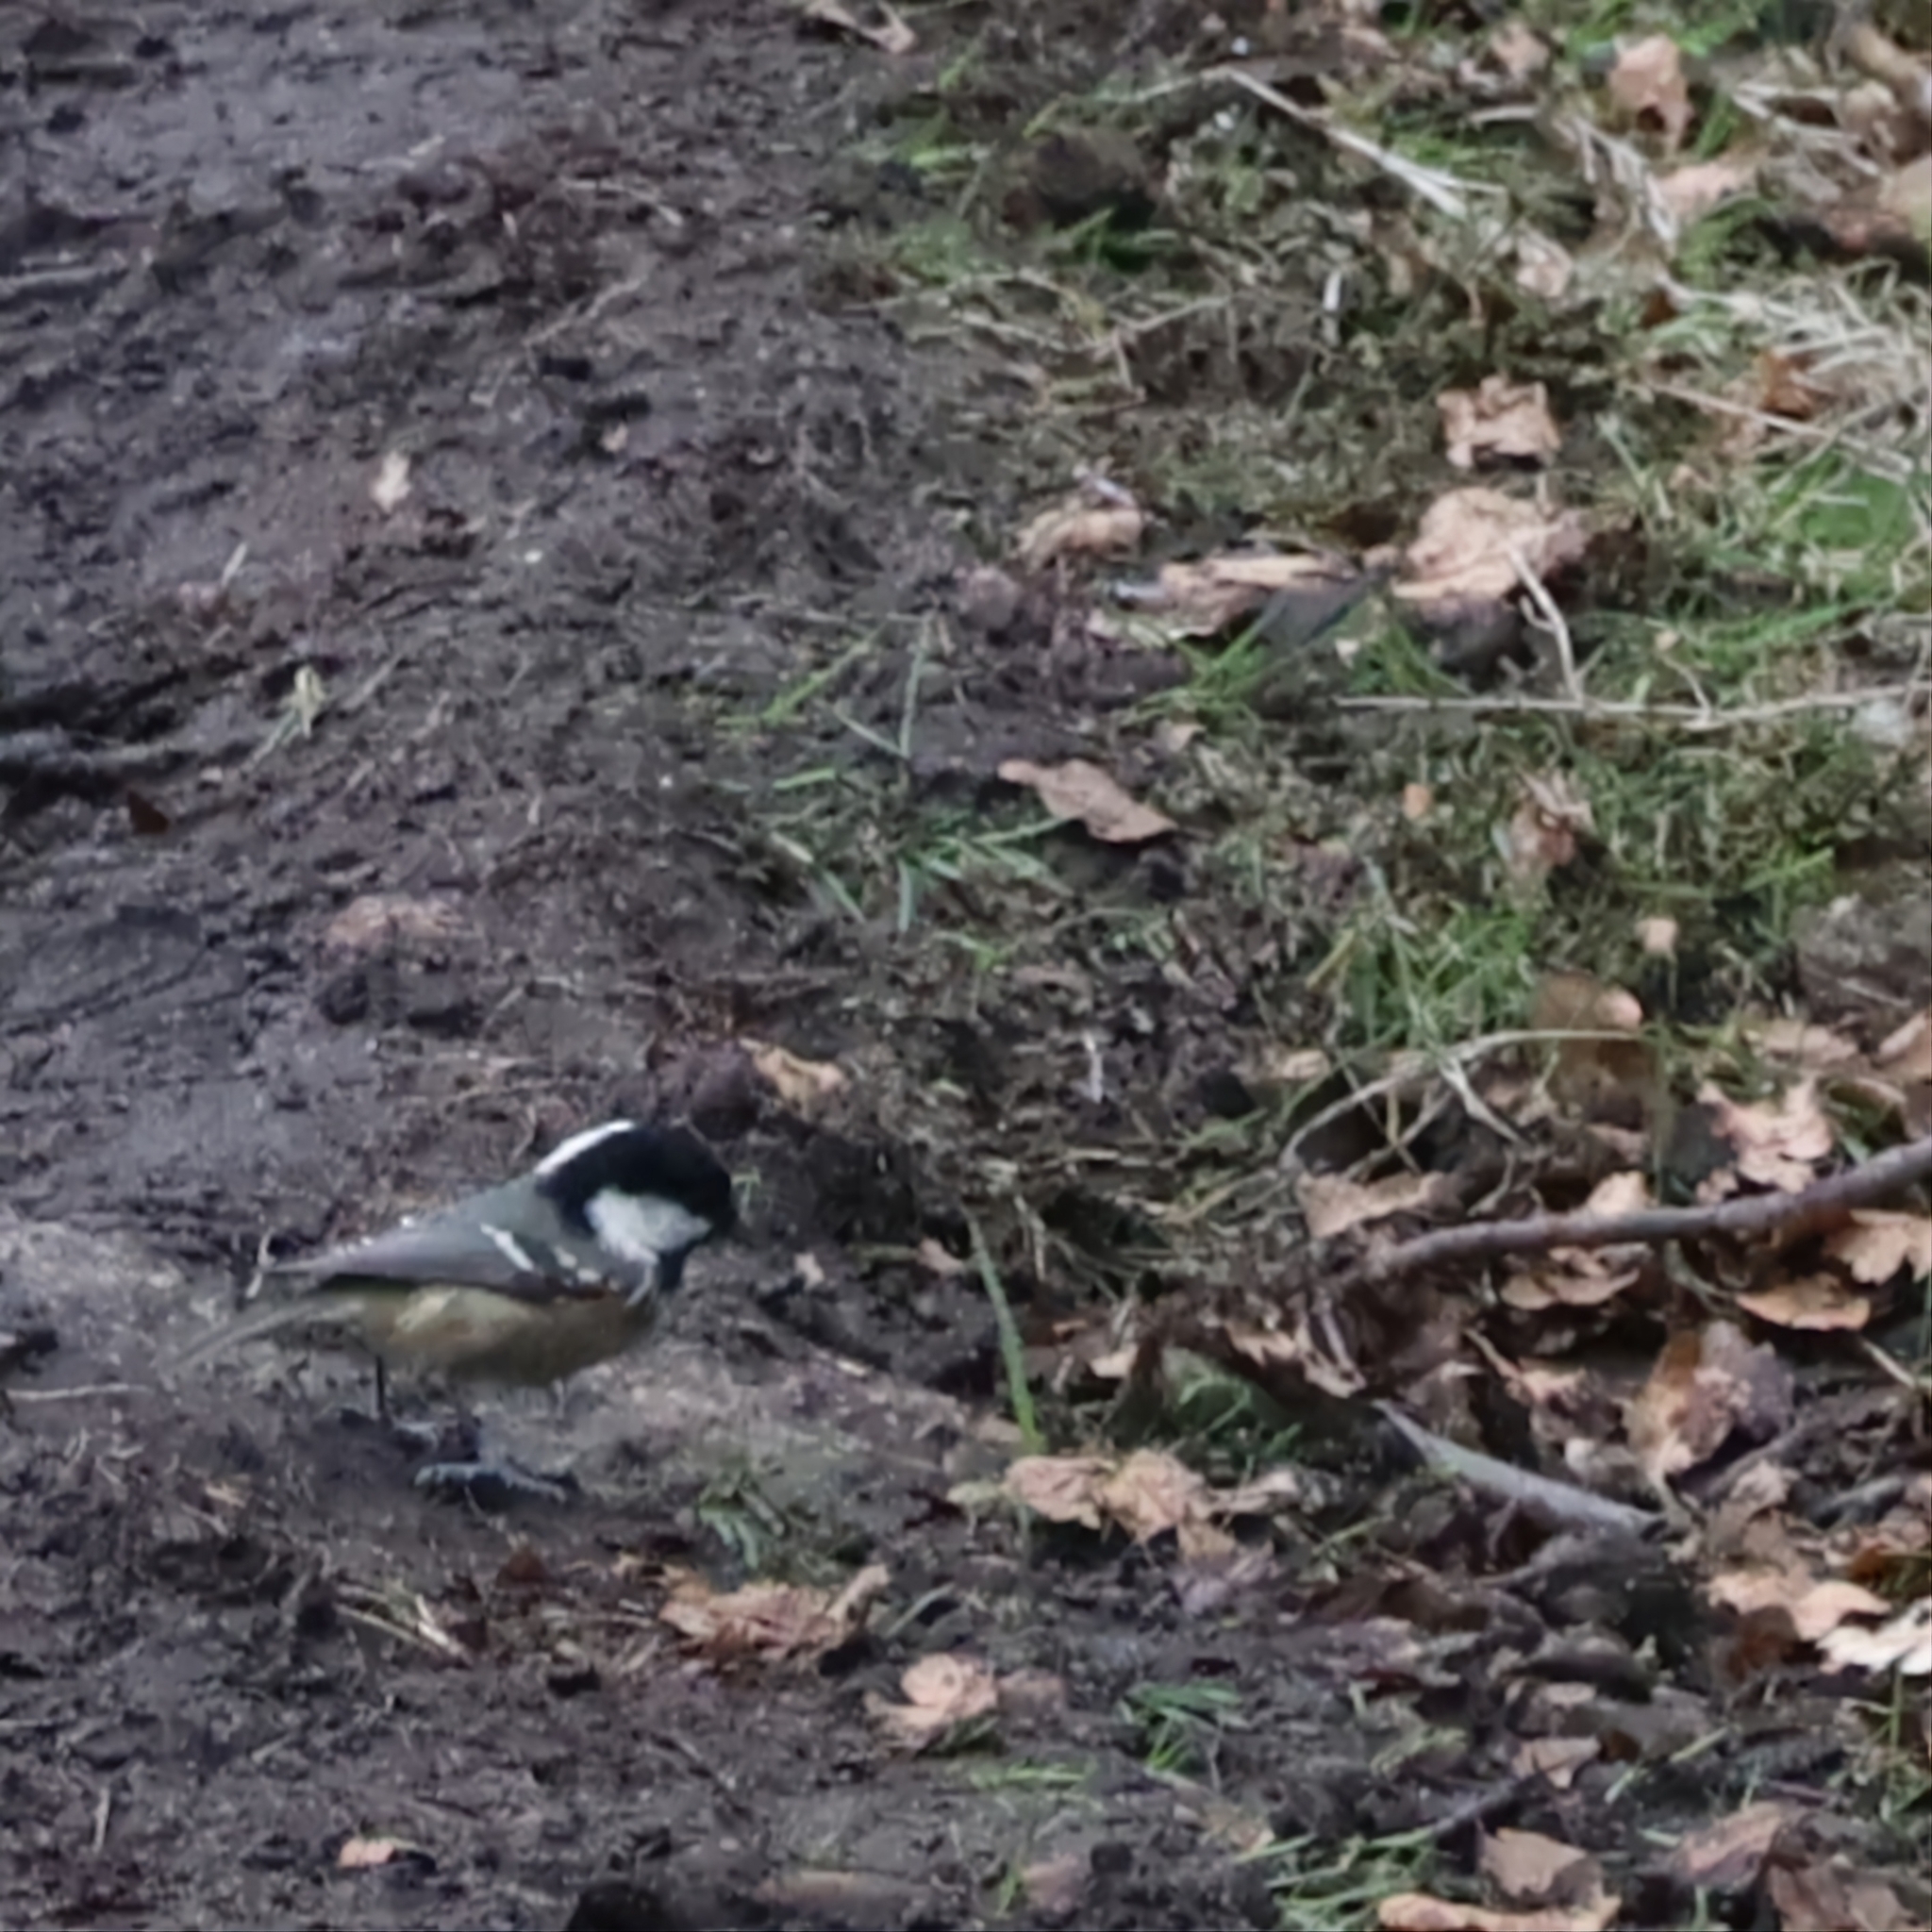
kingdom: Animalia
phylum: Chordata
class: Aves
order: Passeriformes
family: Paridae
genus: Periparus
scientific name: Periparus ater
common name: Coal tit
